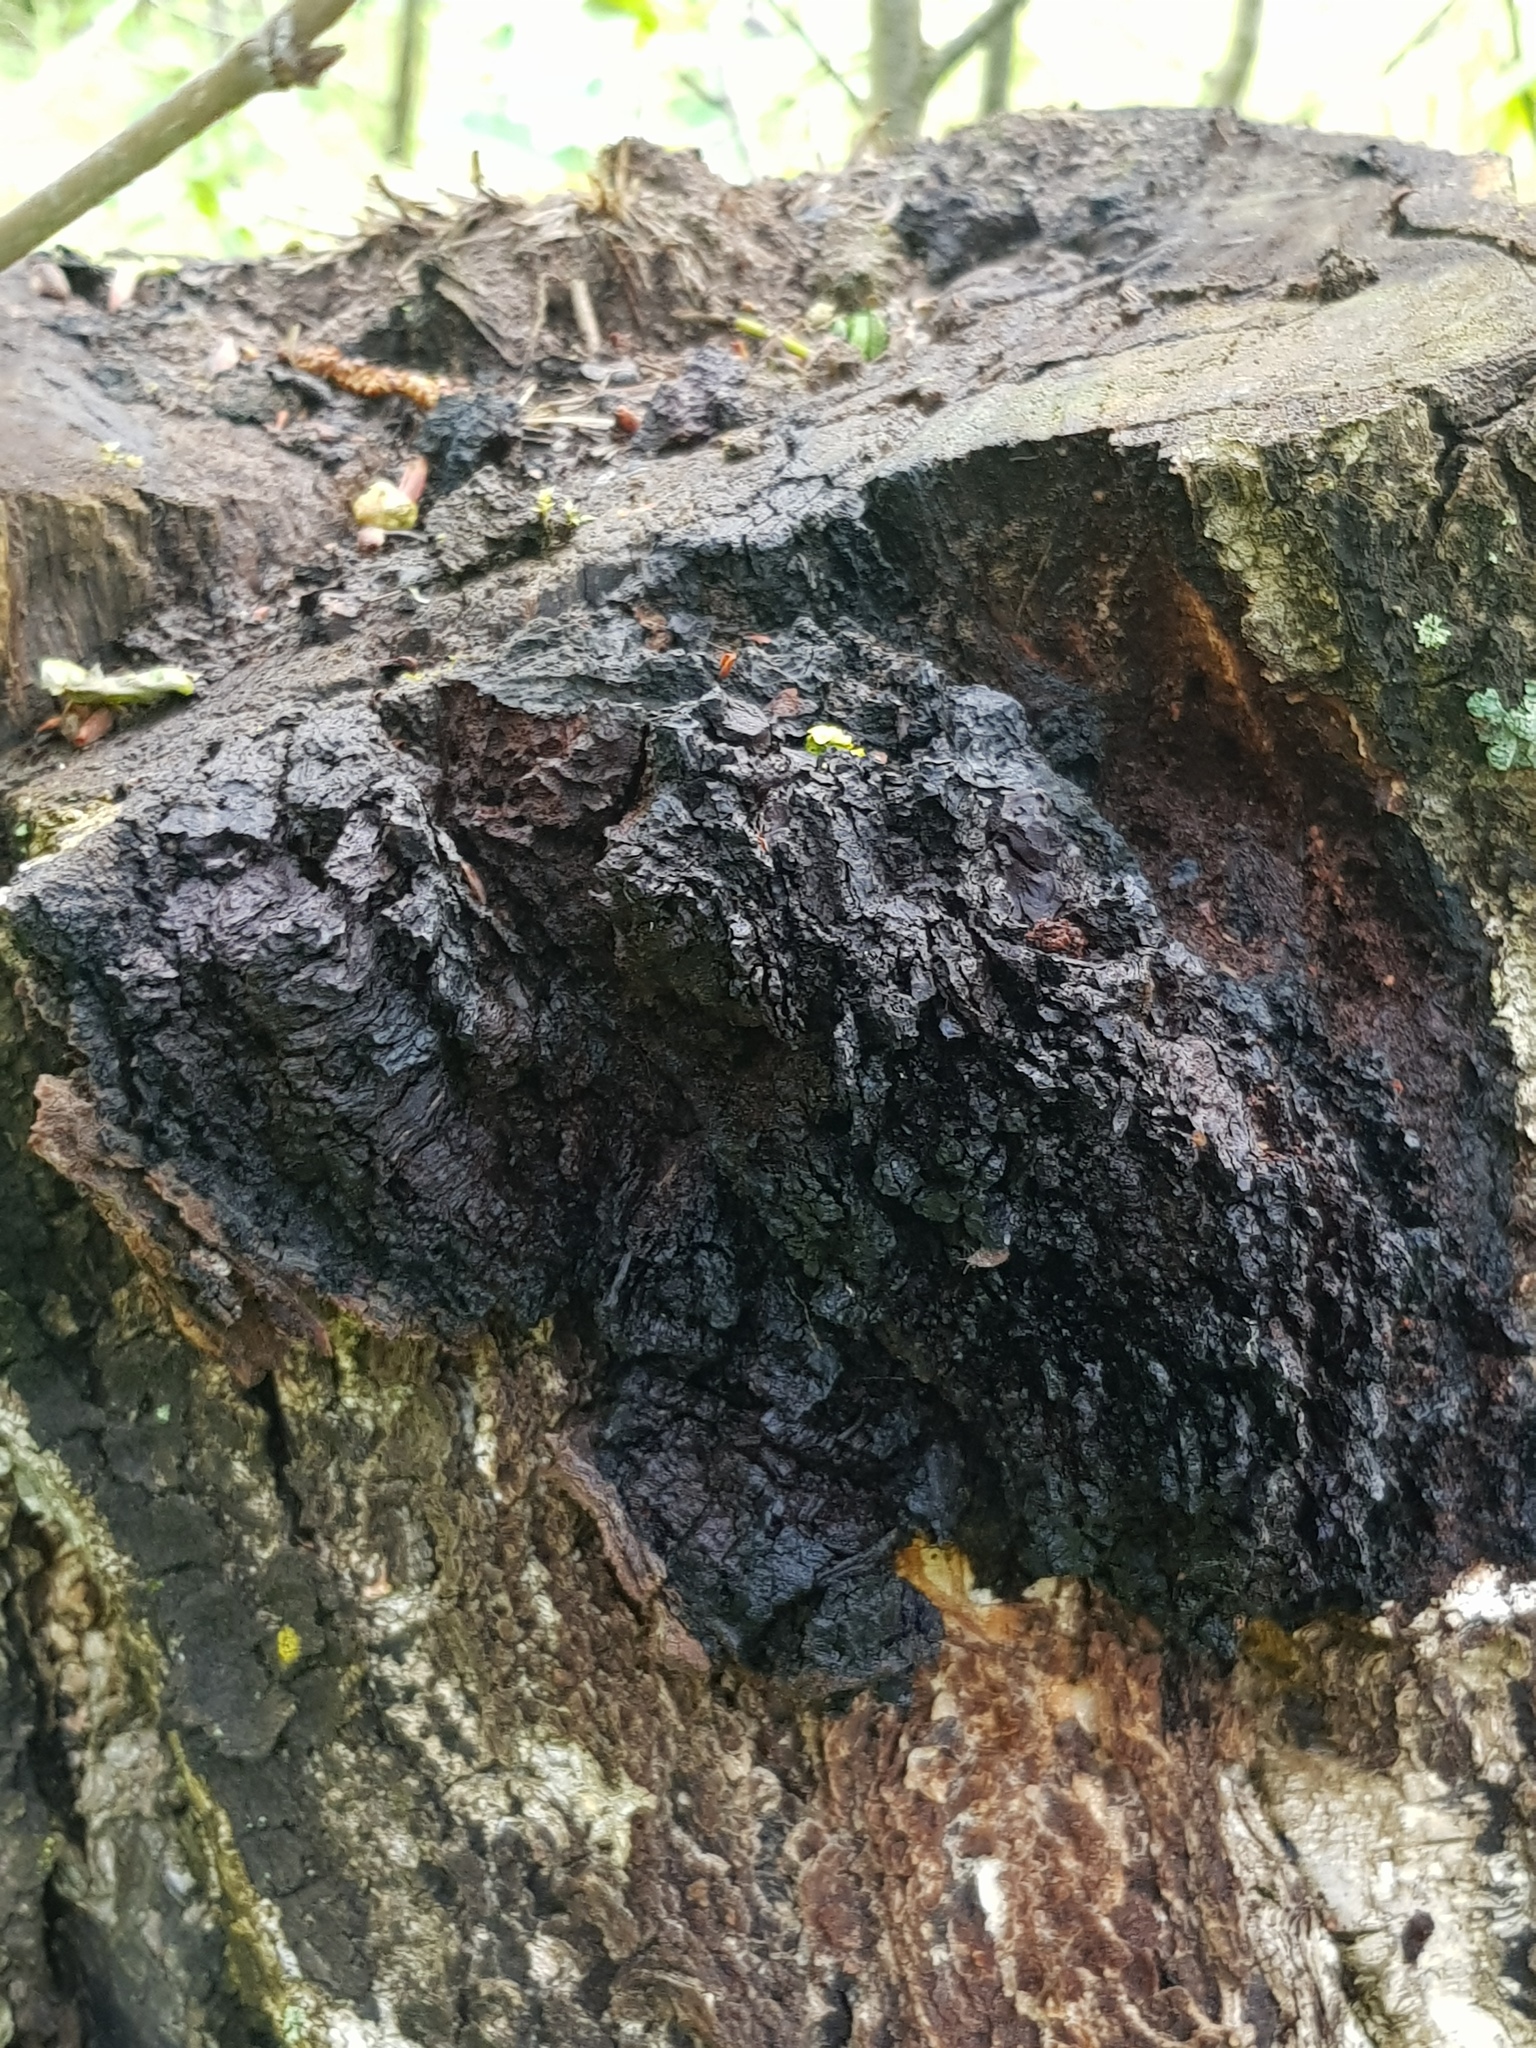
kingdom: Fungi
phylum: Basidiomycota
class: Agaricomycetes
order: Hymenochaetales
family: Hymenochaetaceae
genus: Inonotus
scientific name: Inonotus obliquus
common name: Chaga
